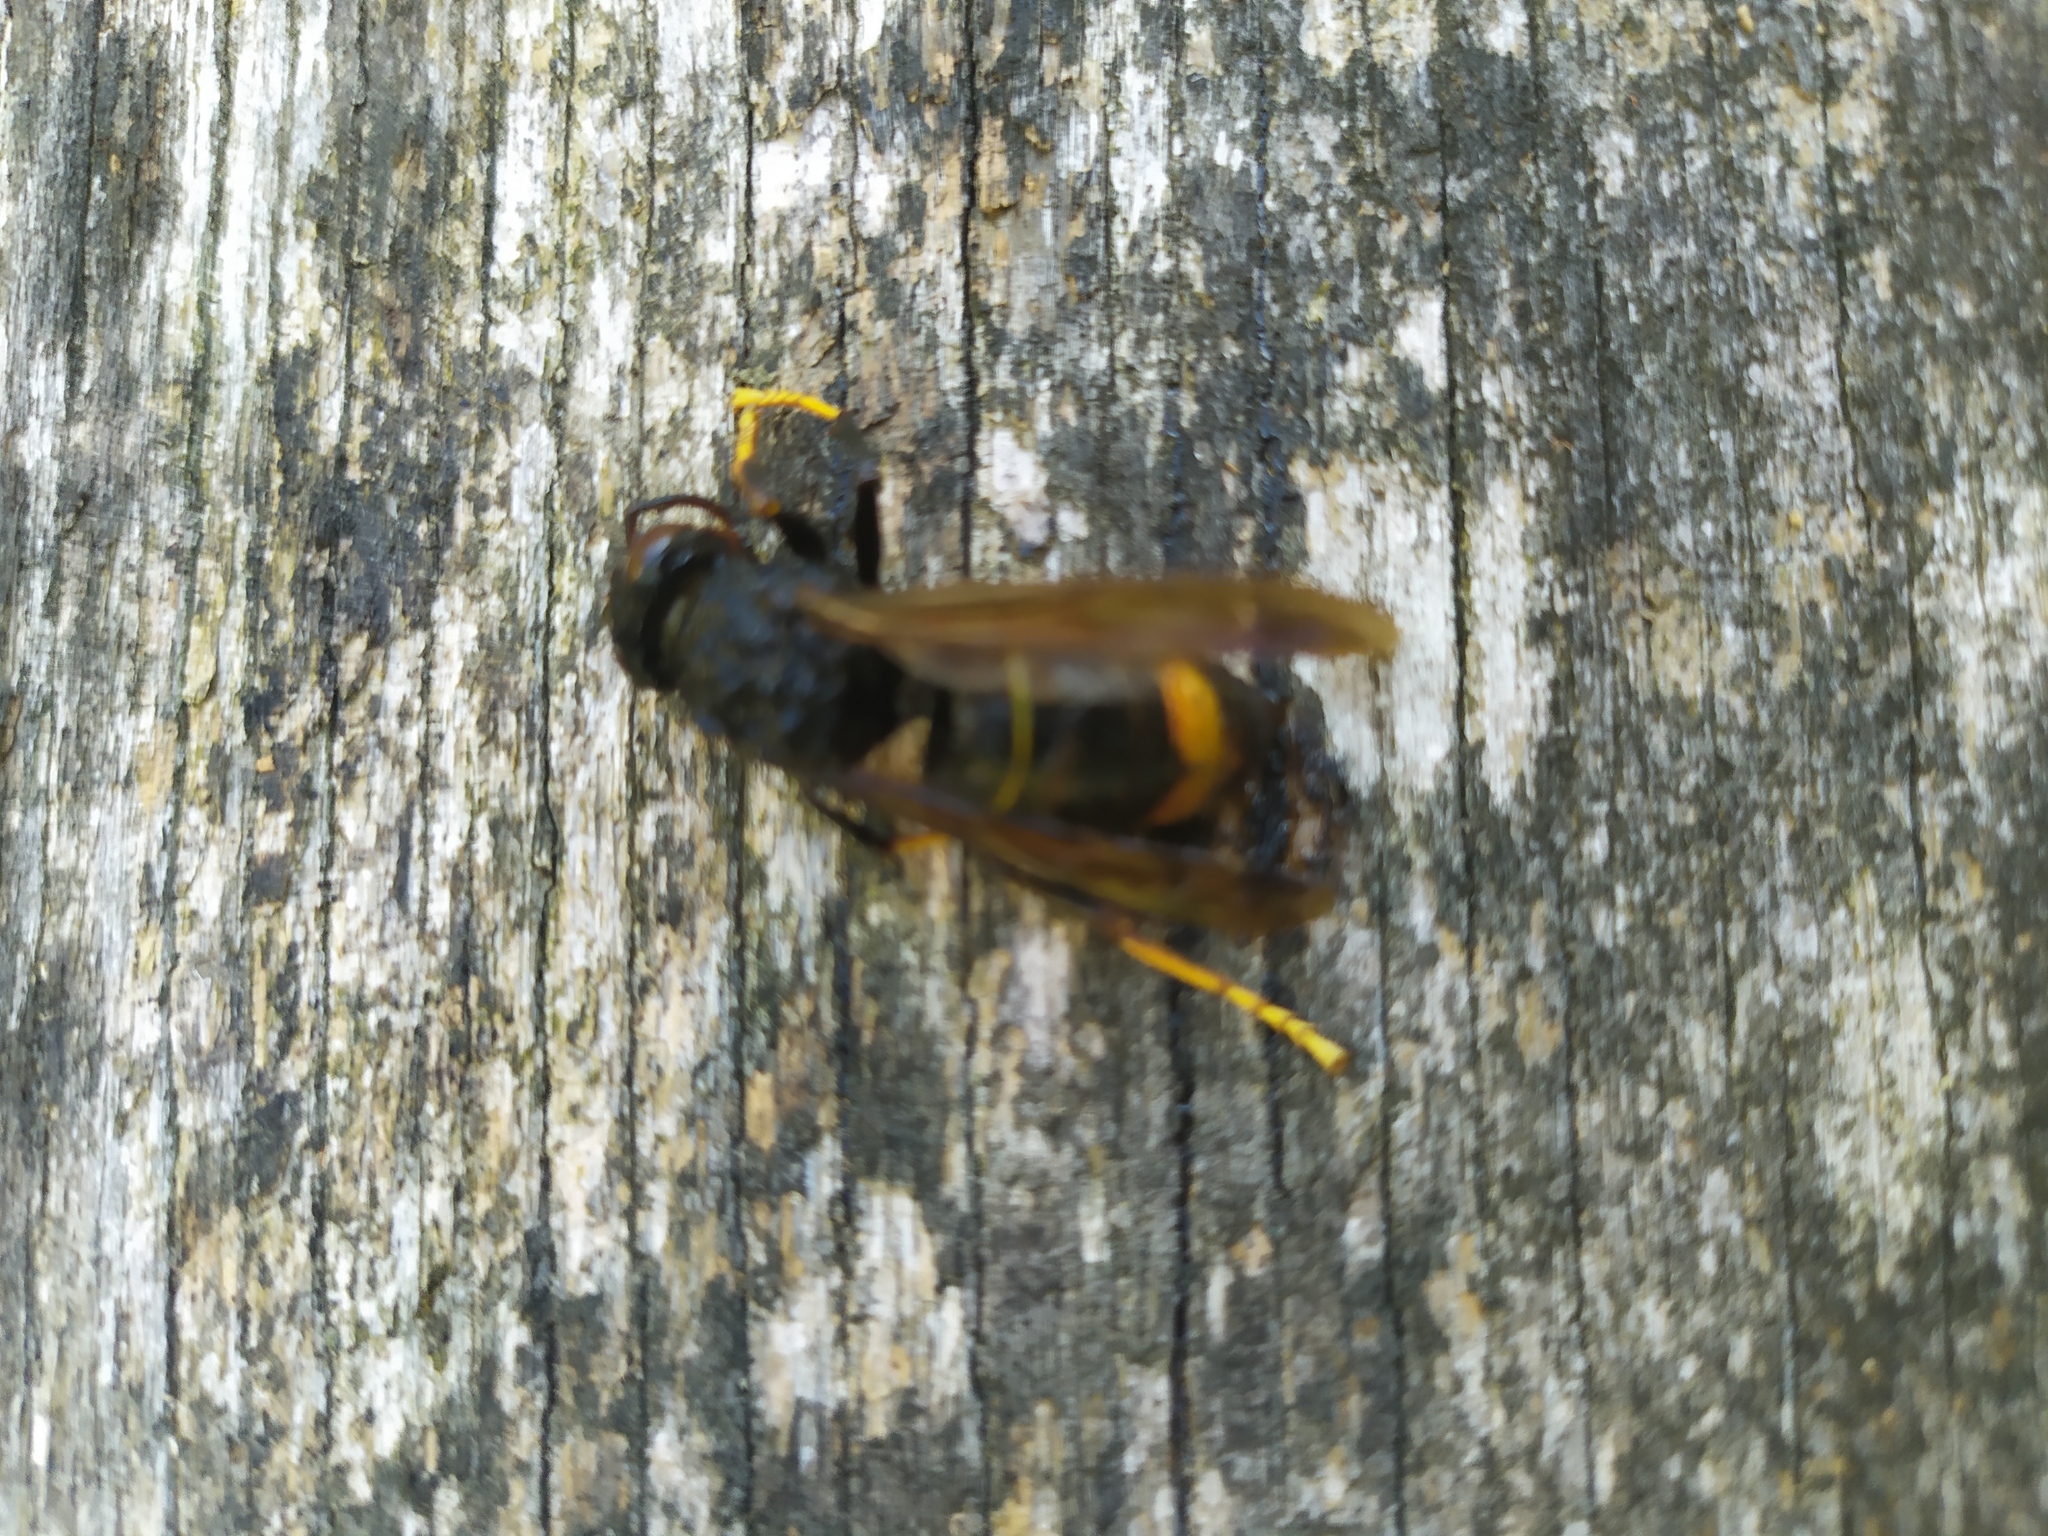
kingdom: Animalia
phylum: Arthropoda
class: Insecta
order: Hymenoptera
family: Vespidae
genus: Vespa
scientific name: Vespa velutina
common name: Asian hornet
